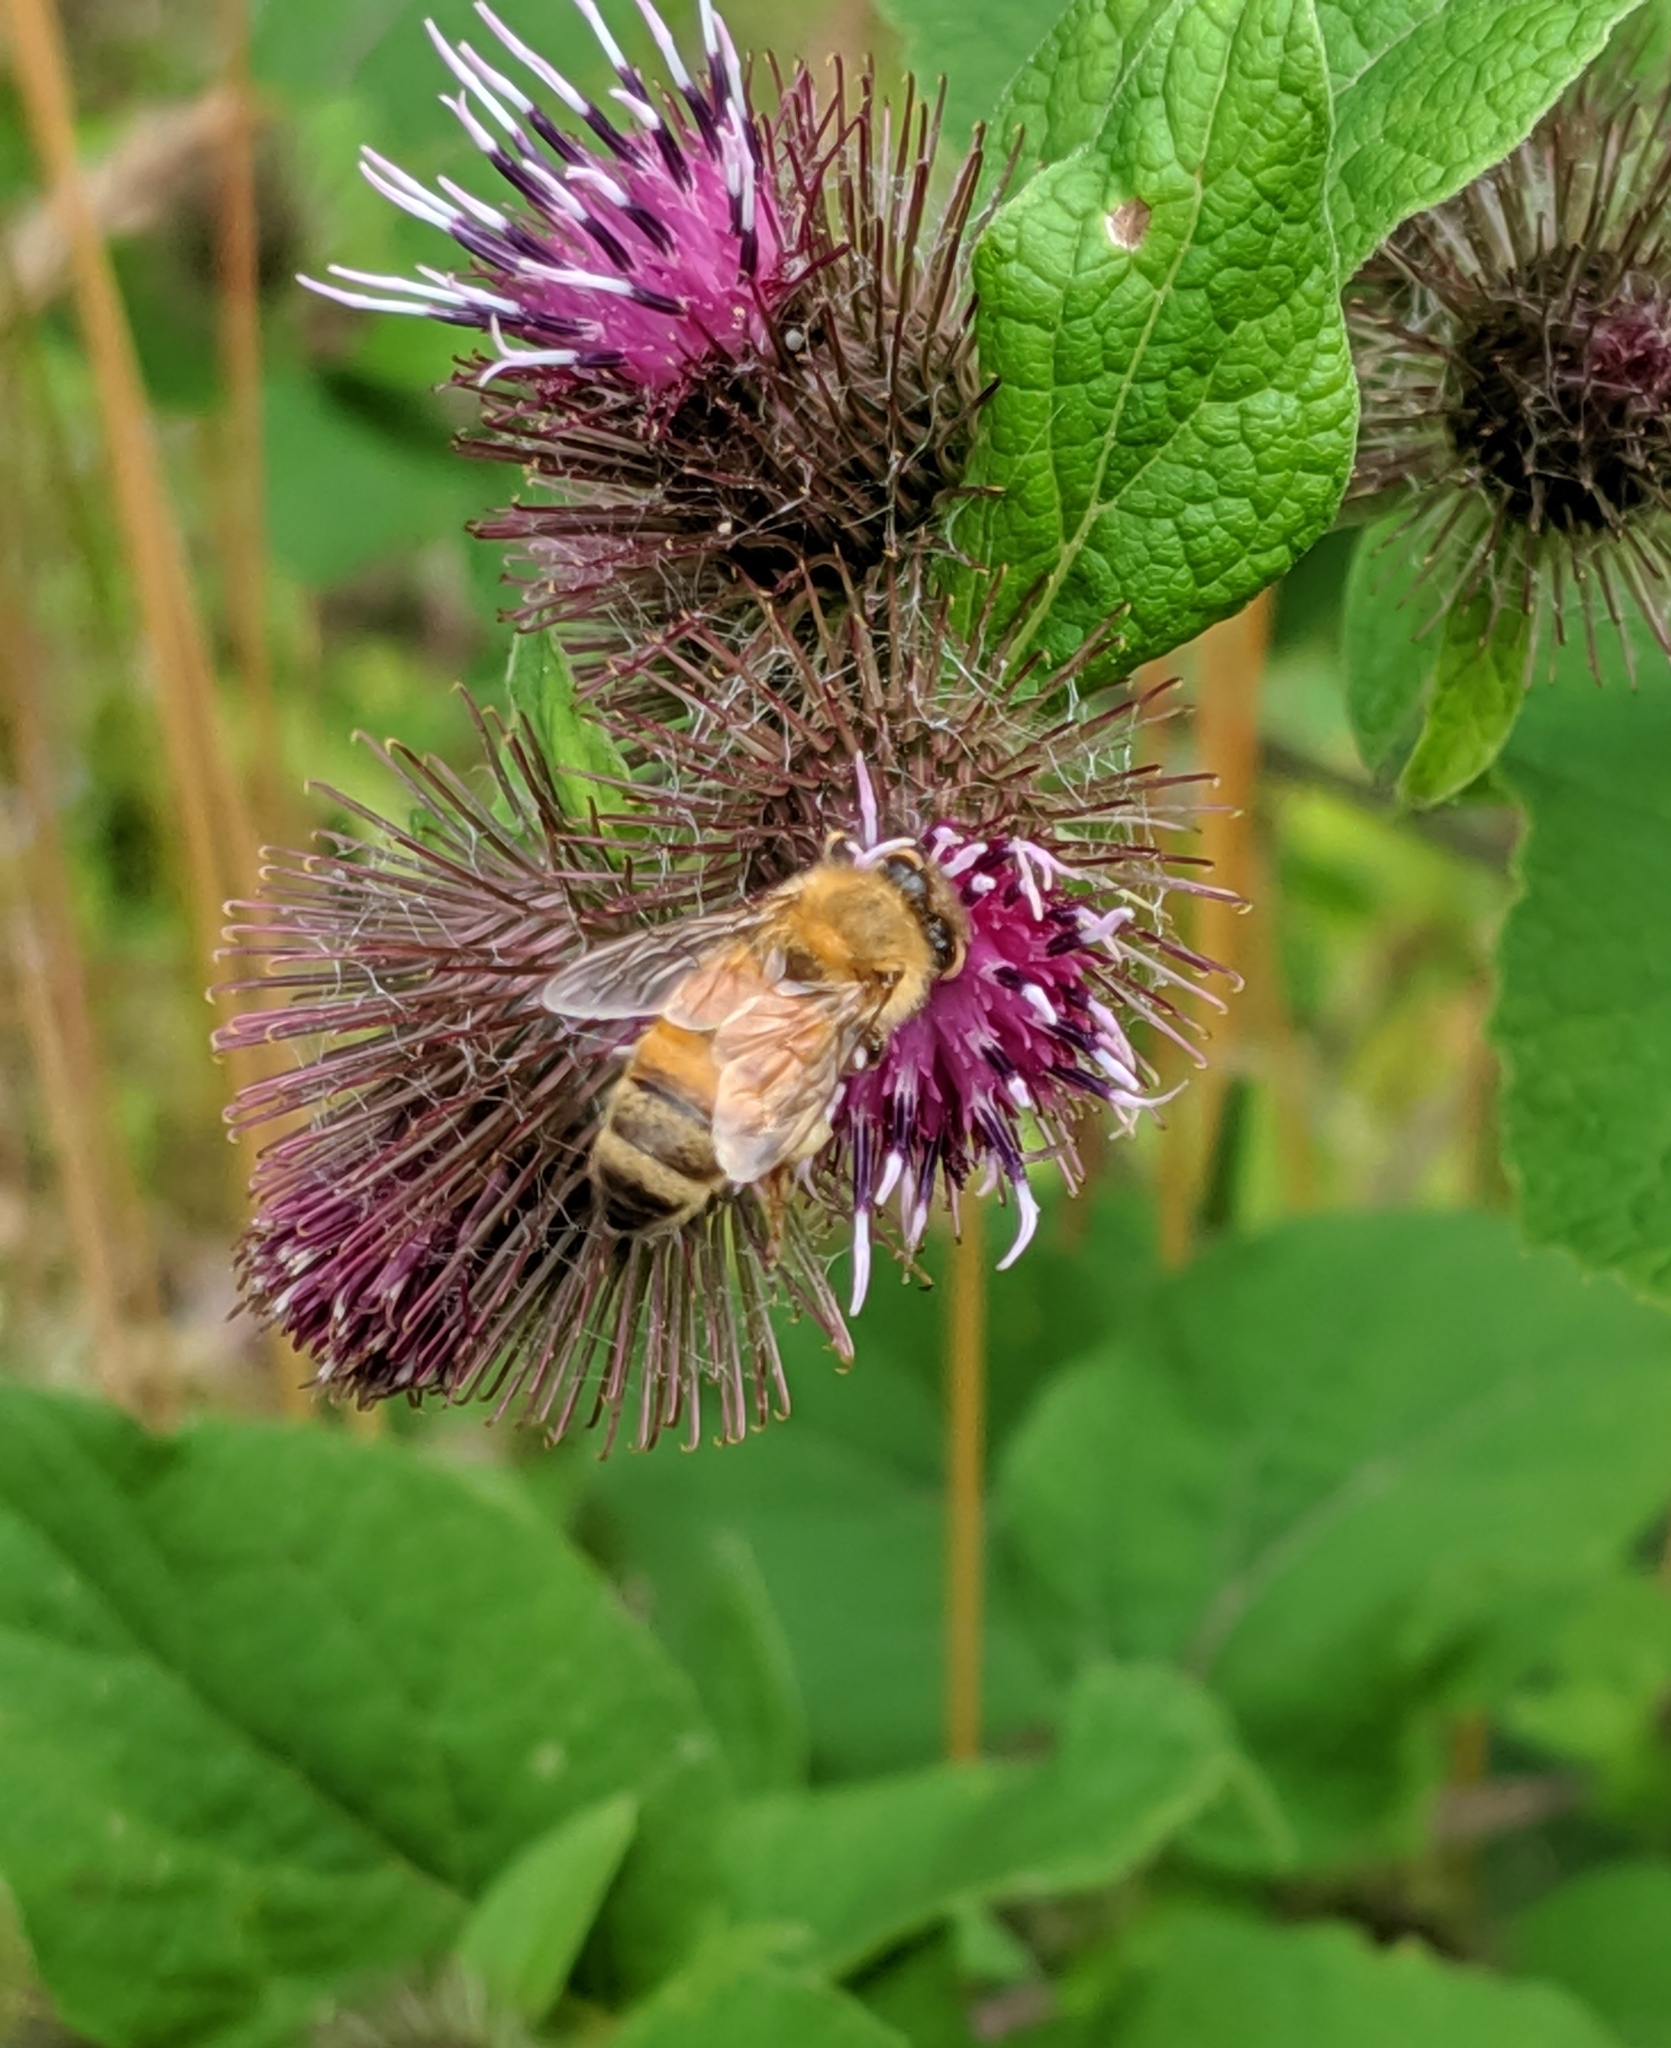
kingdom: Animalia
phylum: Arthropoda
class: Insecta
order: Hymenoptera
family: Apidae
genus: Apis
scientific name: Apis mellifera
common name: Honey bee
